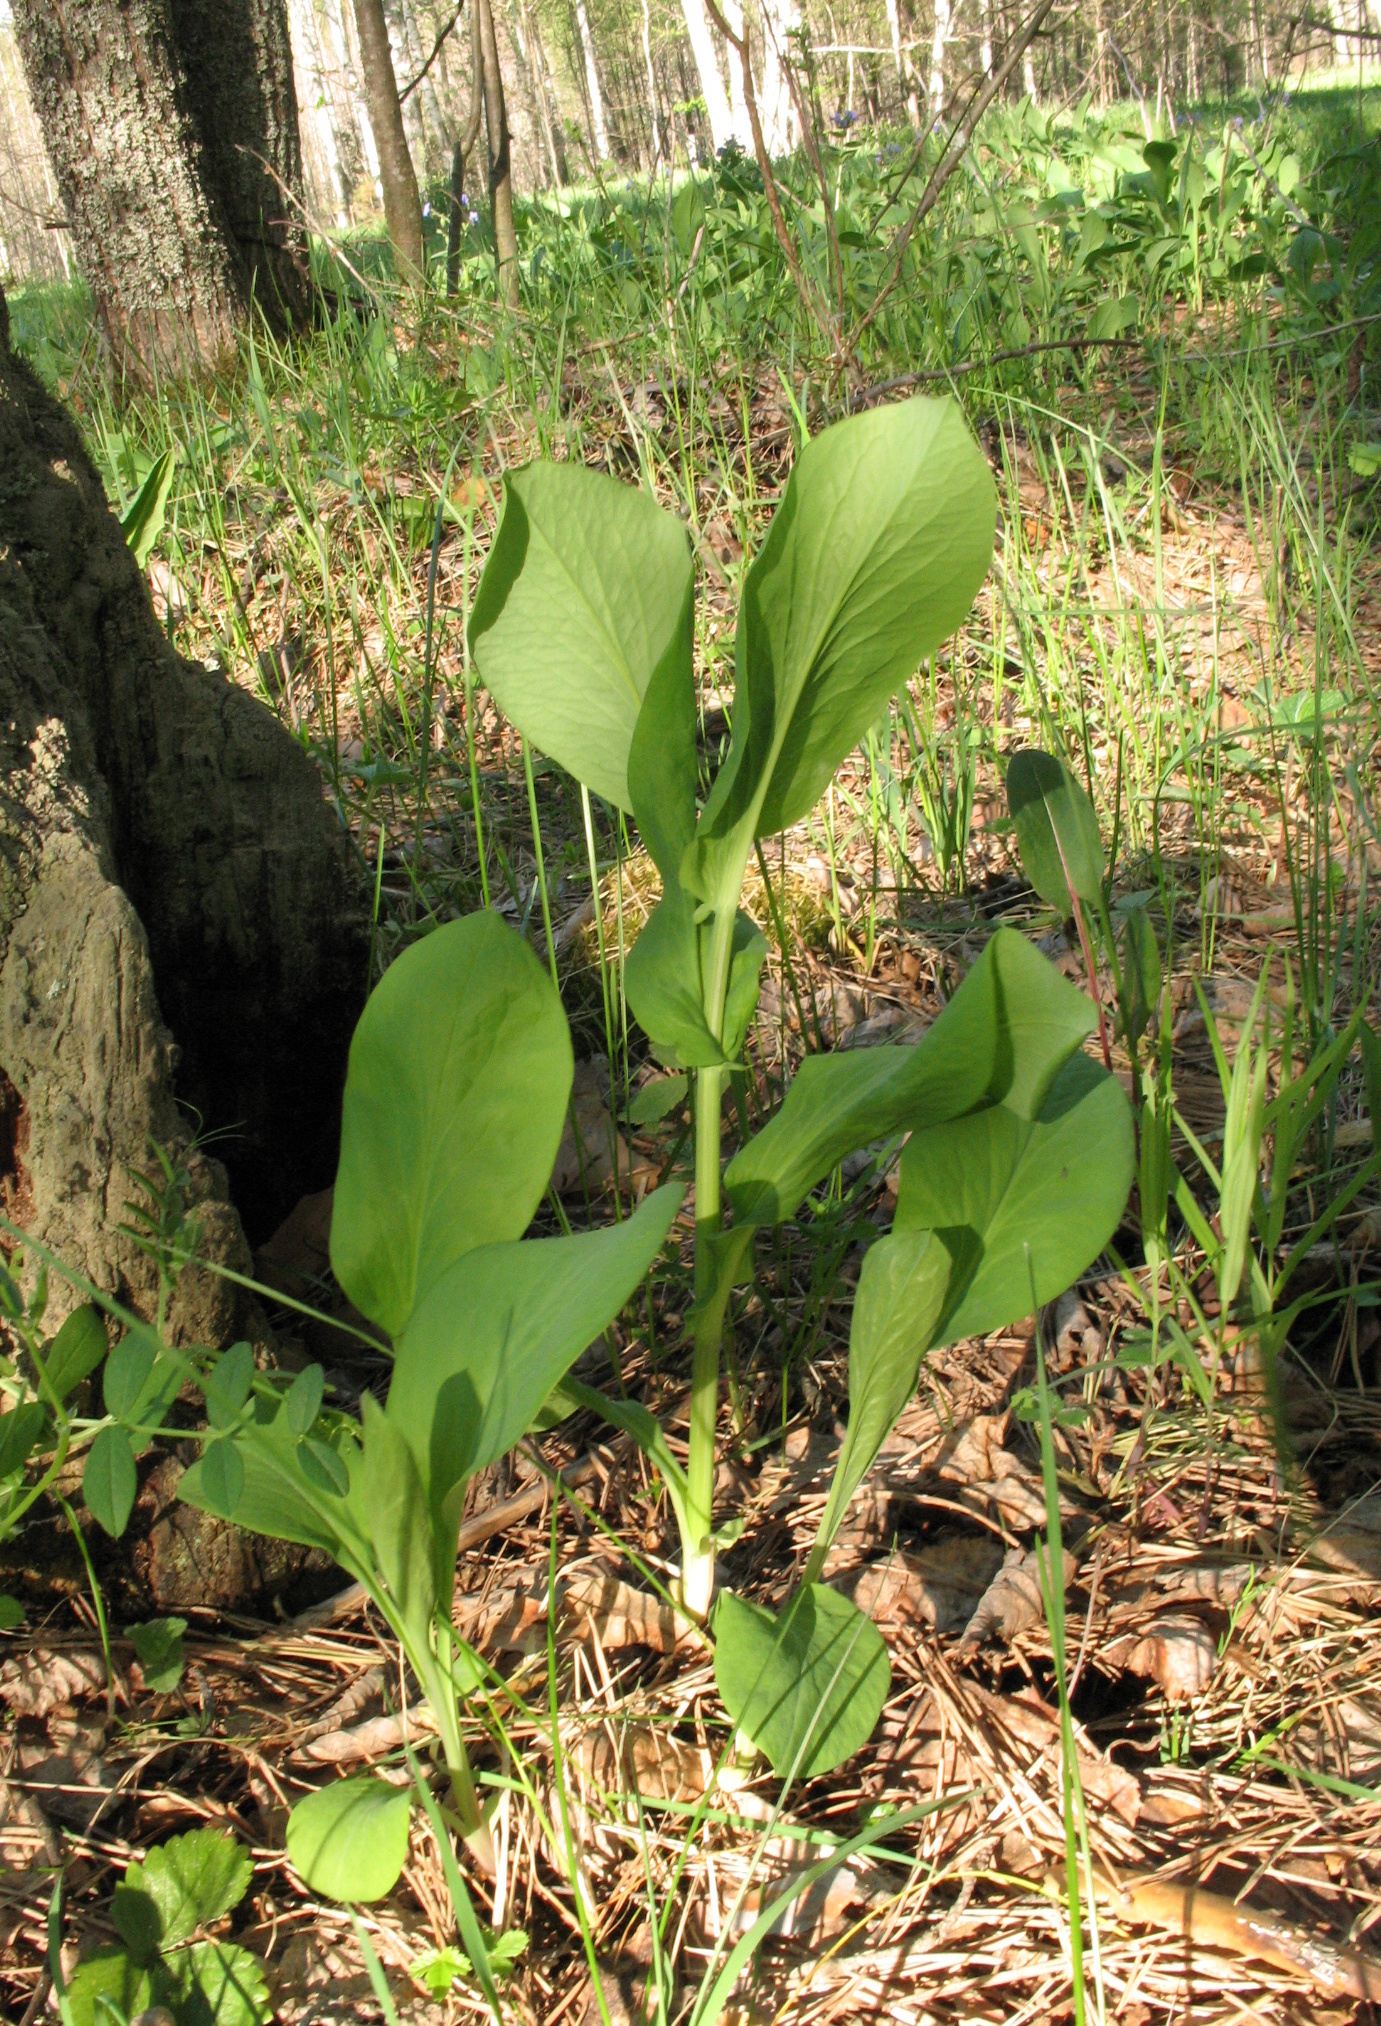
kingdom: Plantae
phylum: Tracheophyta
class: Magnoliopsida
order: Apiales
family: Apiaceae
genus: Bupleurum
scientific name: Bupleurum aureum
